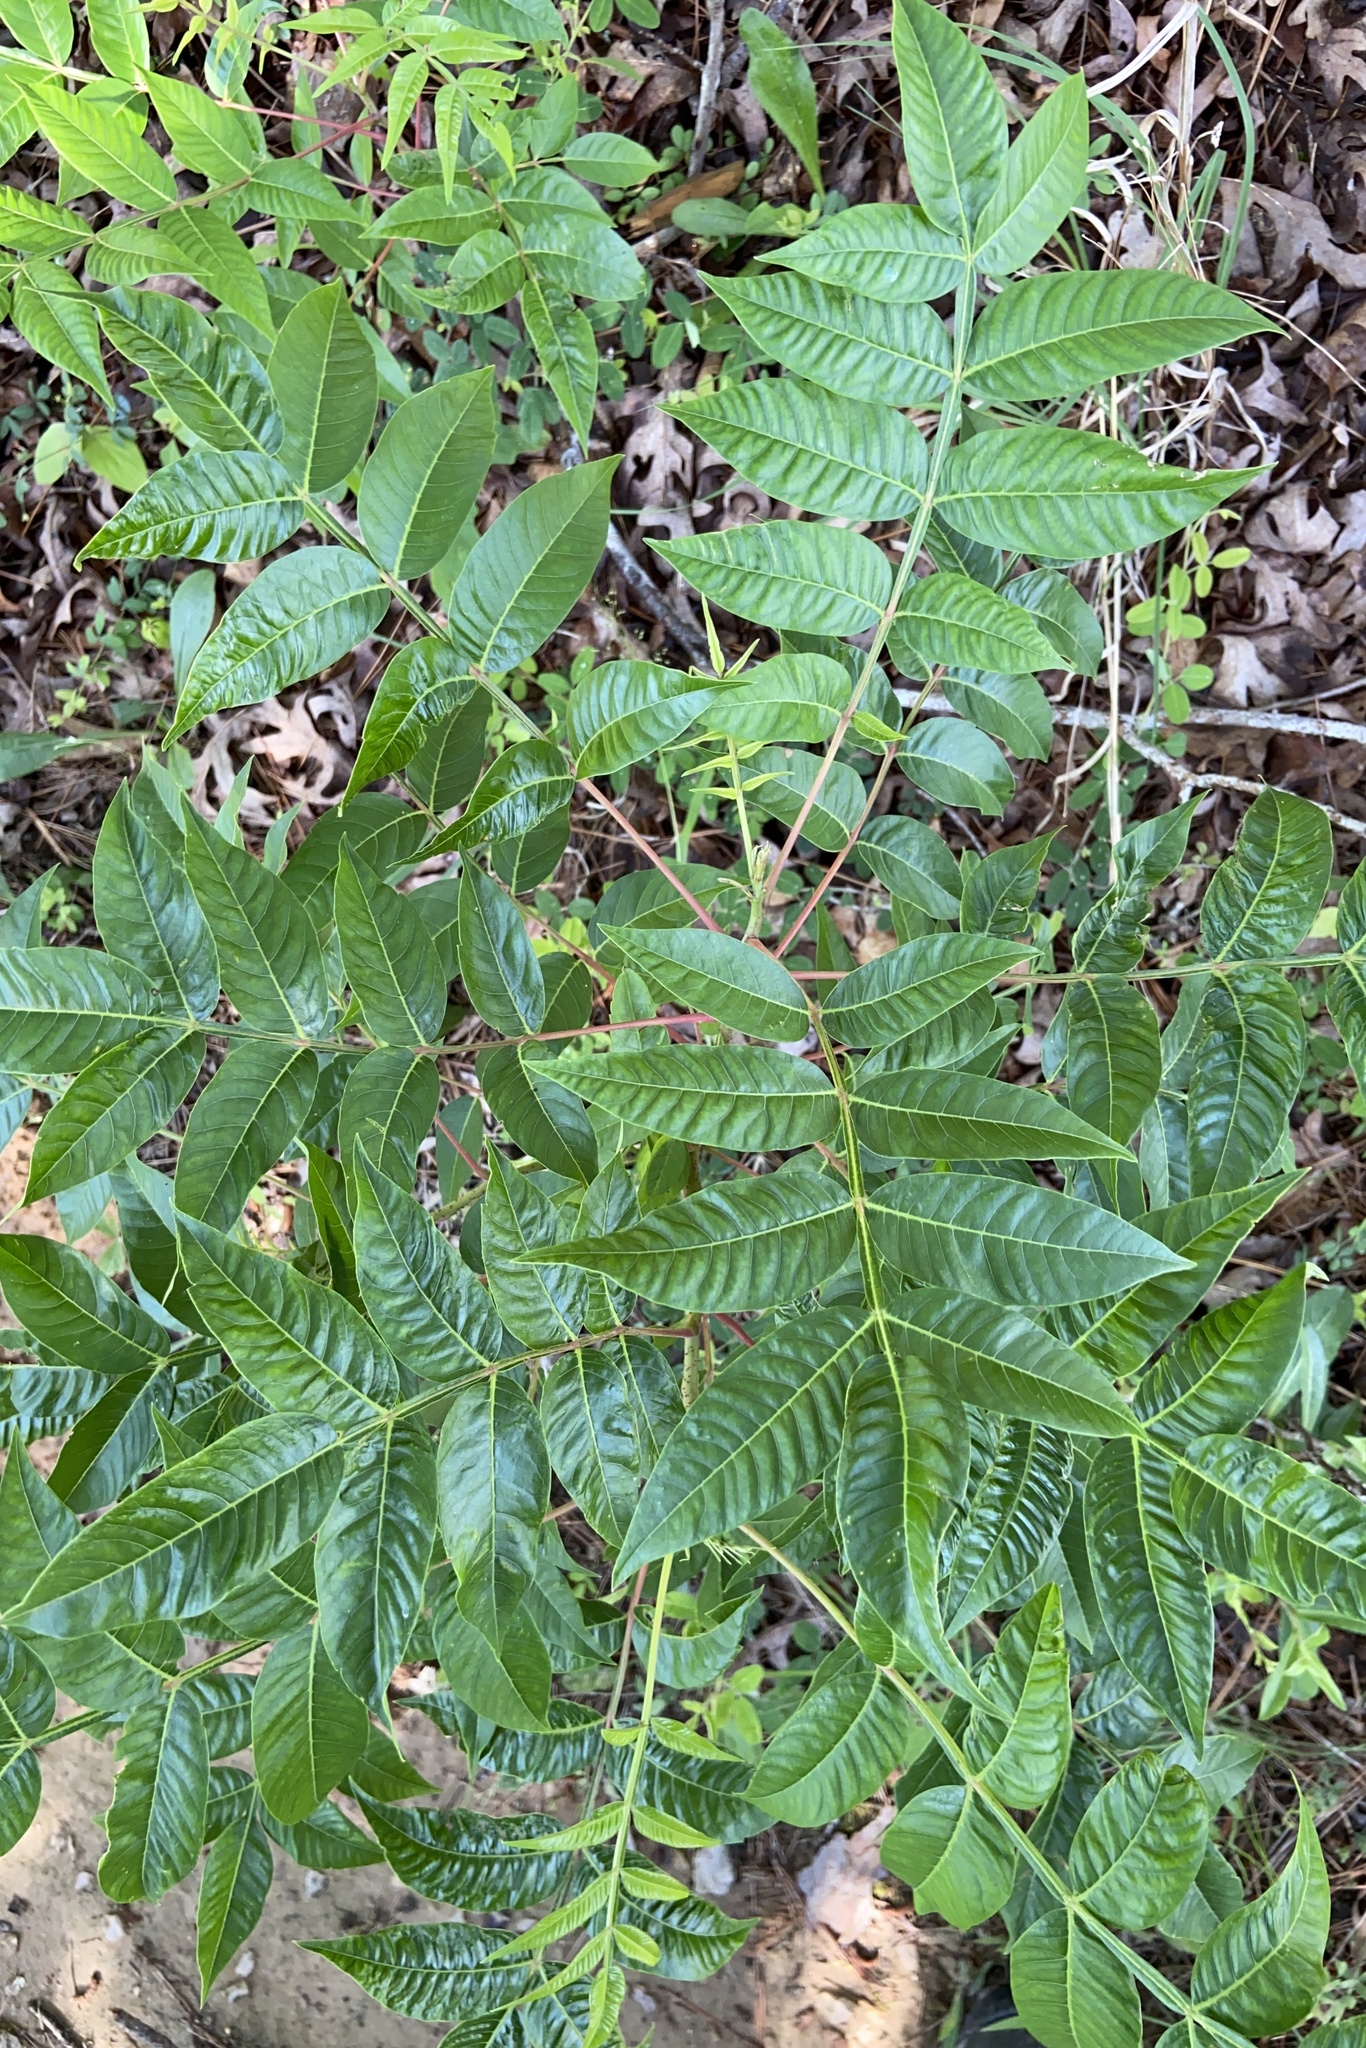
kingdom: Plantae
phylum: Tracheophyta
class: Magnoliopsida
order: Asterales
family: Asteraceae
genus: Coreopsis
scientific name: Coreopsis major
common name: Forest tickseed
